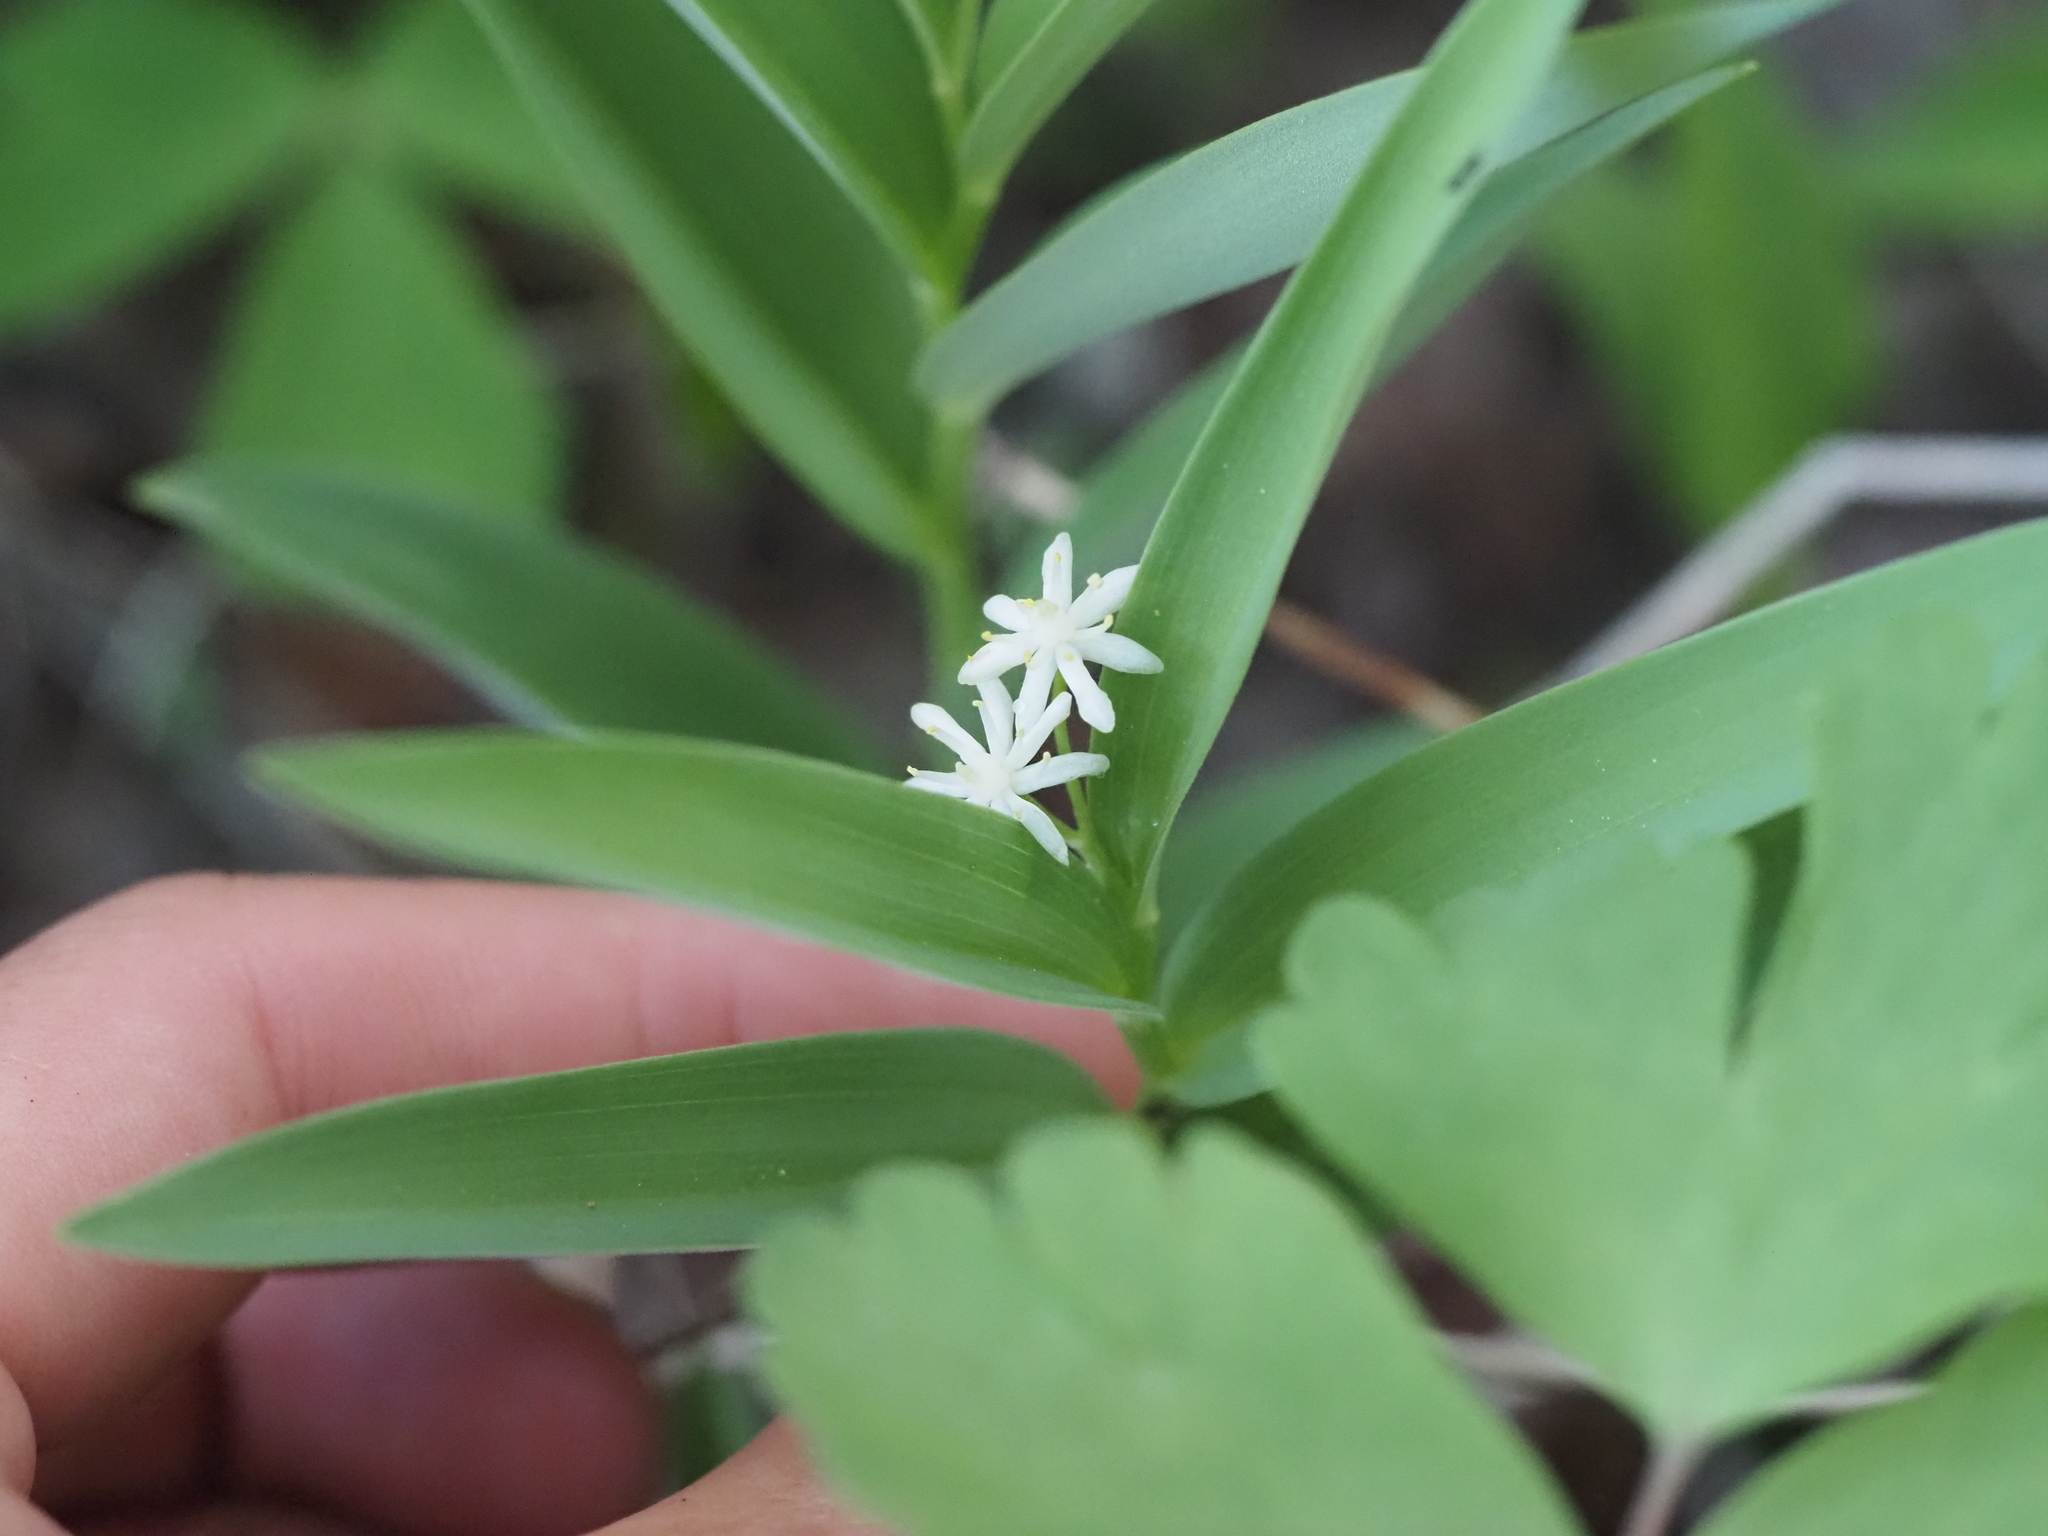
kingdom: Plantae
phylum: Tracheophyta
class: Liliopsida
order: Asparagales
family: Asparagaceae
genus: Maianthemum
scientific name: Maianthemum stellatum
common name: Little false solomon's seal
